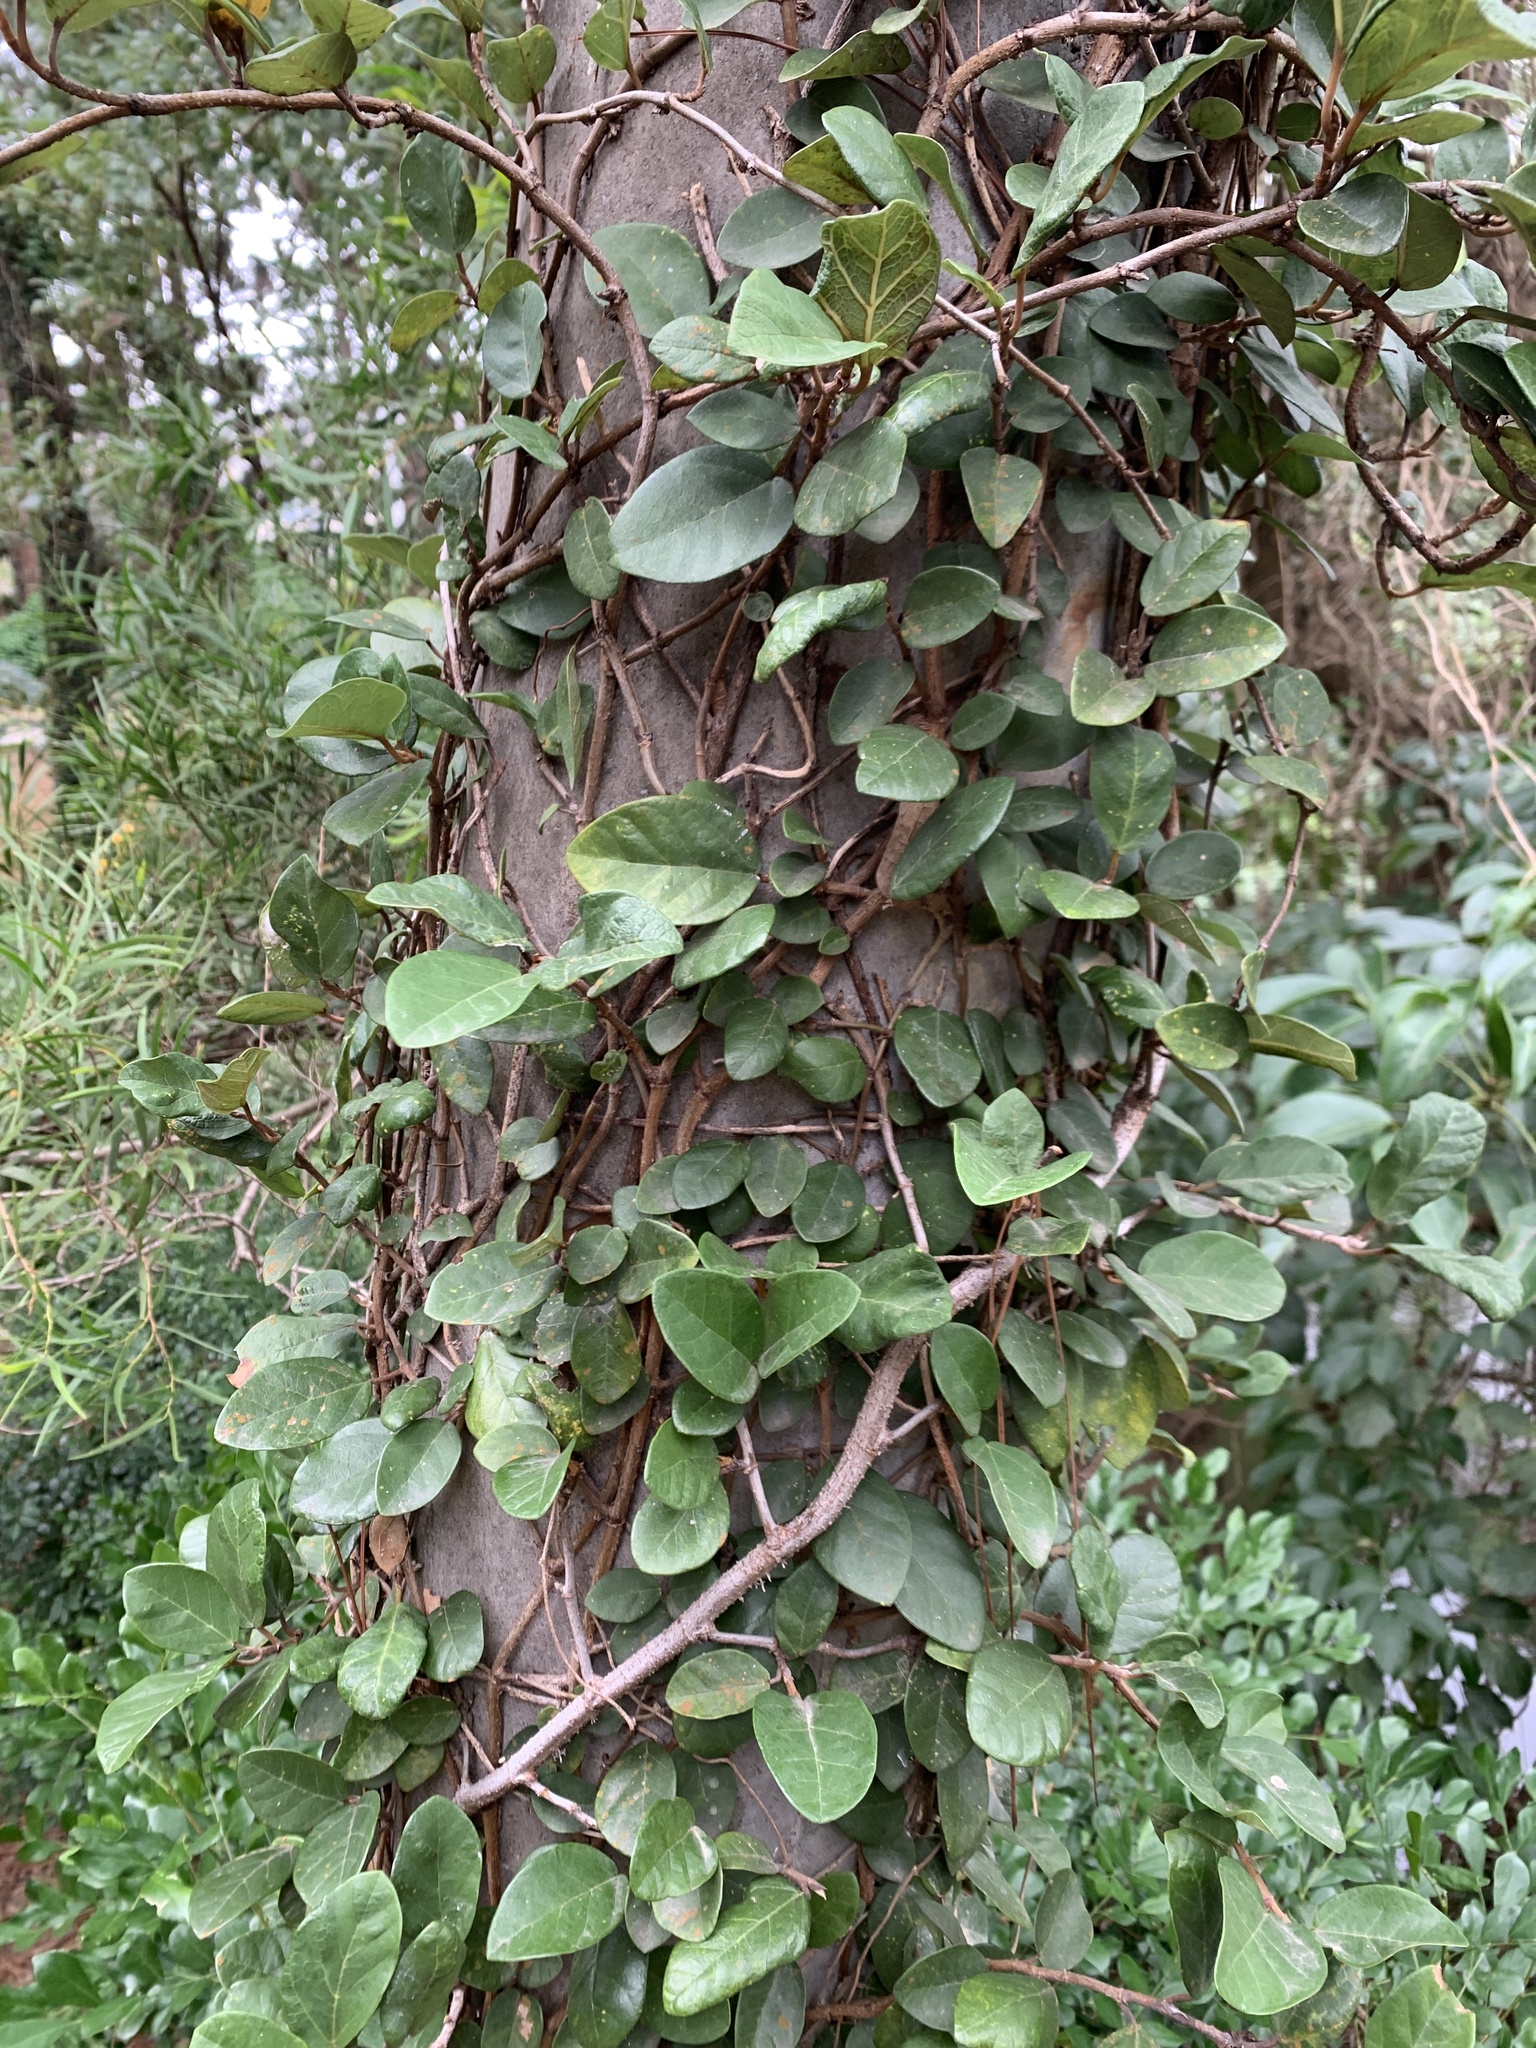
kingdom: Plantae
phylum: Tracheophyta
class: Magnoliopsida
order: Rosales
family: Moraceae
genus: Ficus
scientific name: Ficus pumila
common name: Climbingfig
